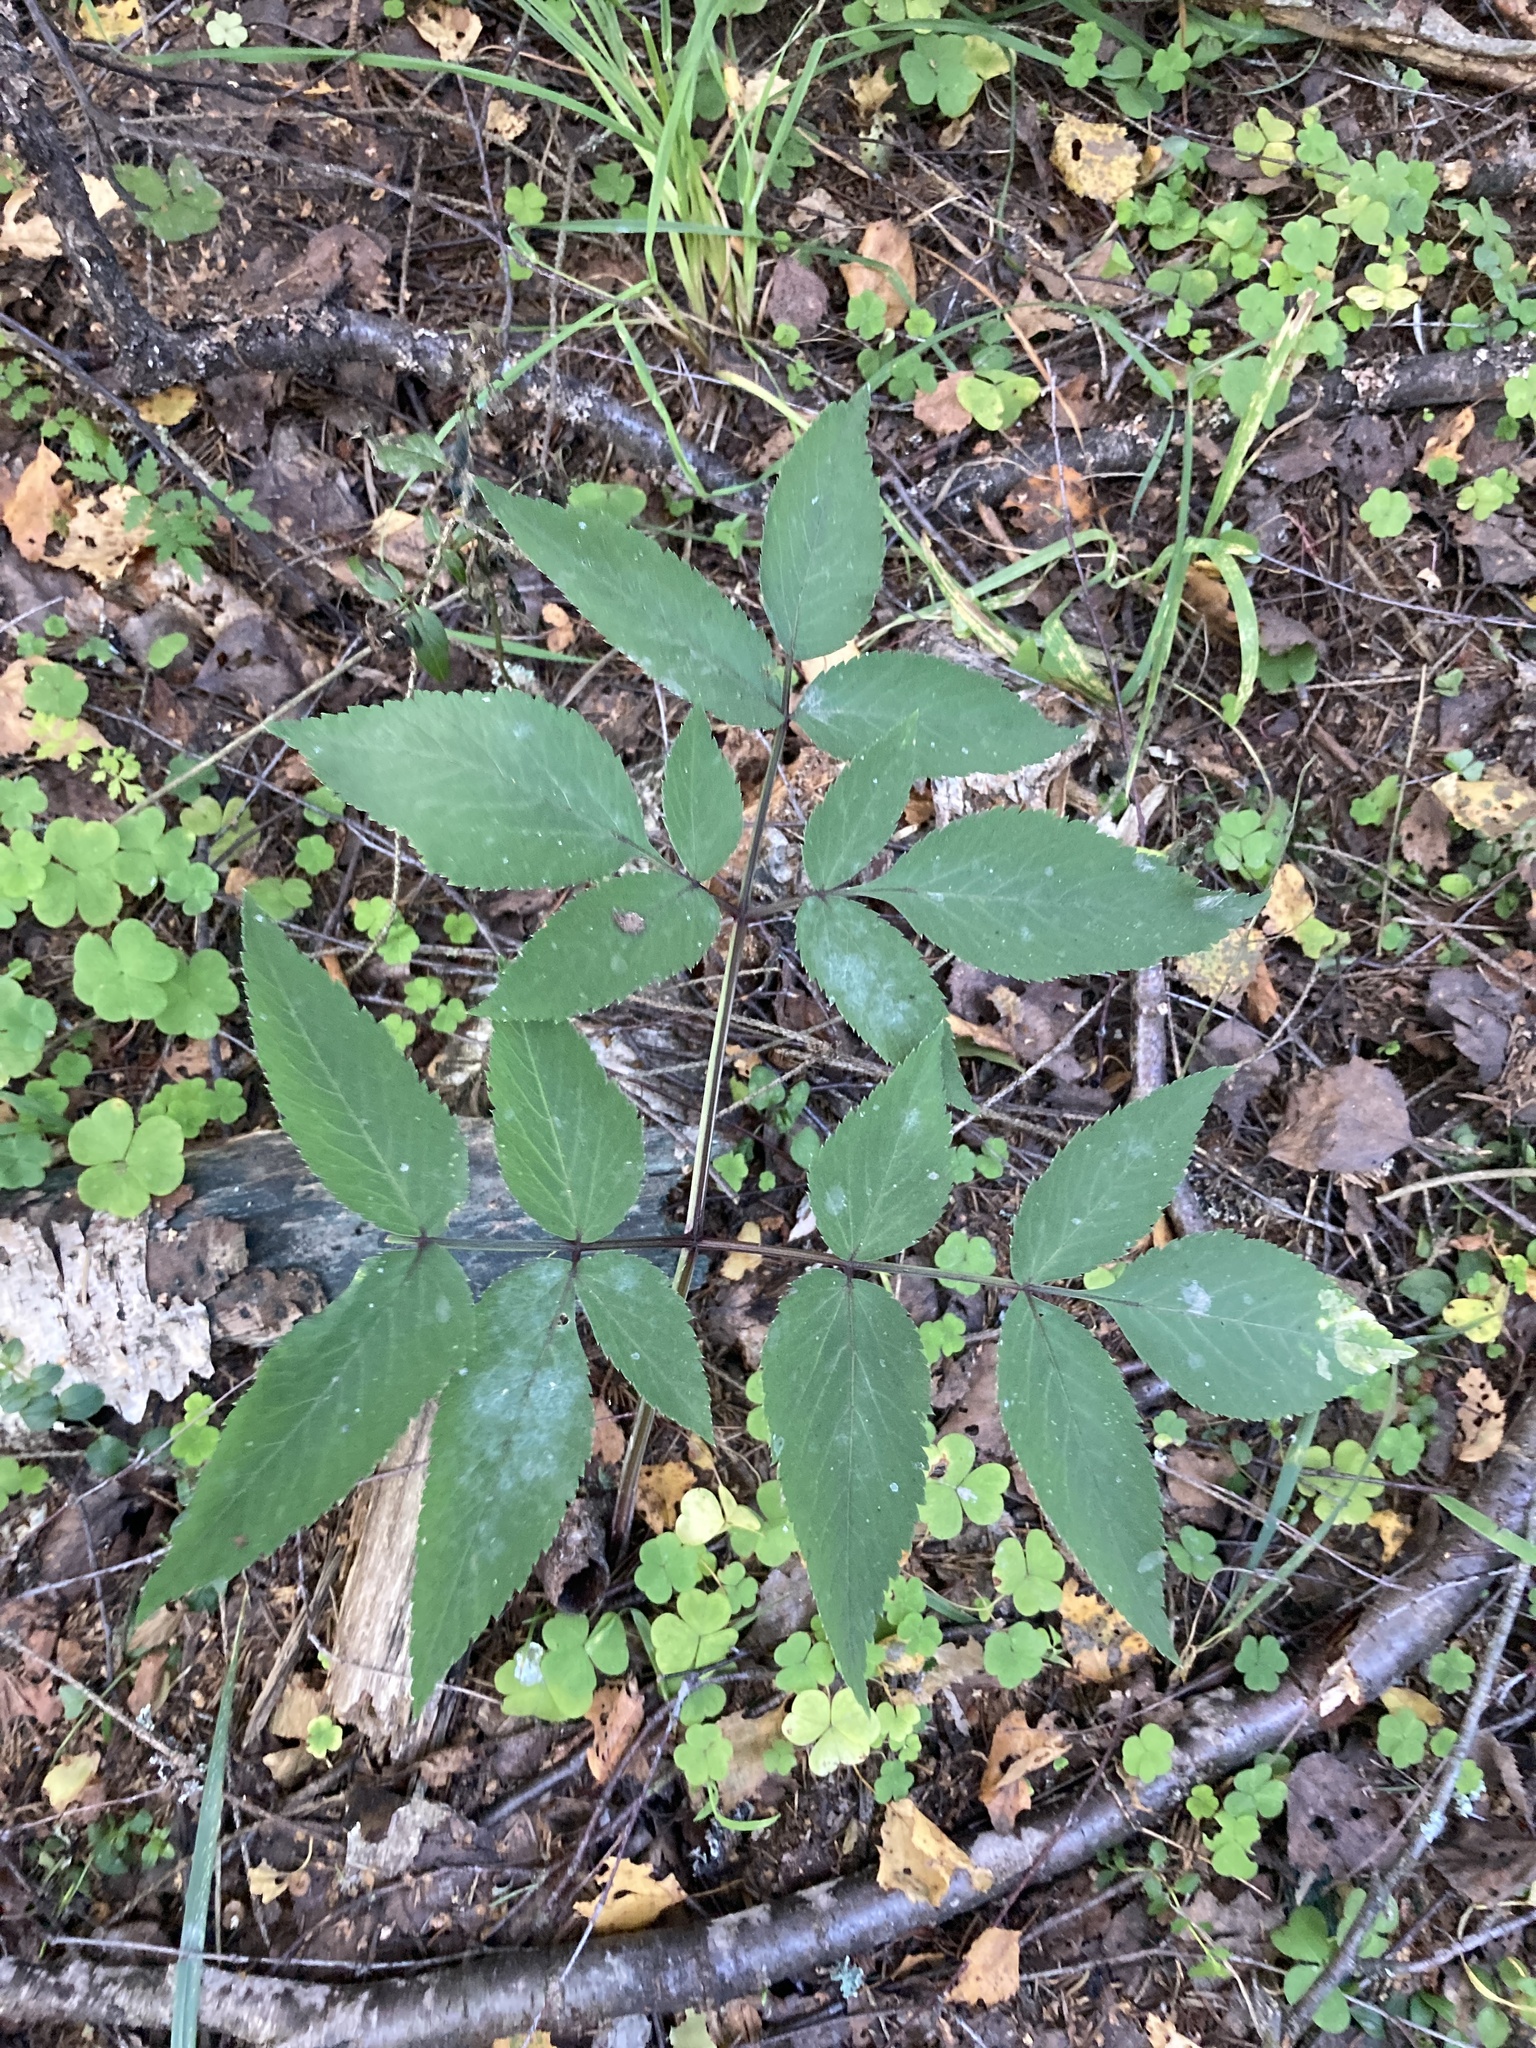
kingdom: Plantae
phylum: Tracheophyta
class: Magnoliopsida
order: Apiales
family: Apiaceae
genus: Angelica
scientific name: Angelica sylvestris
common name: Wild angelica
